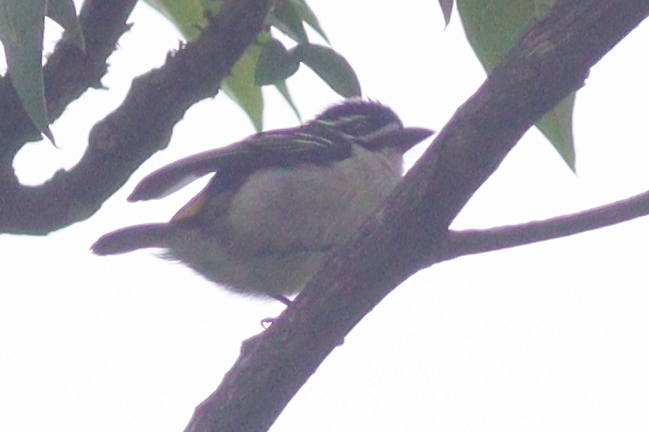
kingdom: Animalia
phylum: Chordata
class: Aves
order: Piciformes
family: Lybiidae
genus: Pogoniulus
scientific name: Pogoniulus bilineatus
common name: Yellow-rumped tinkerbird
